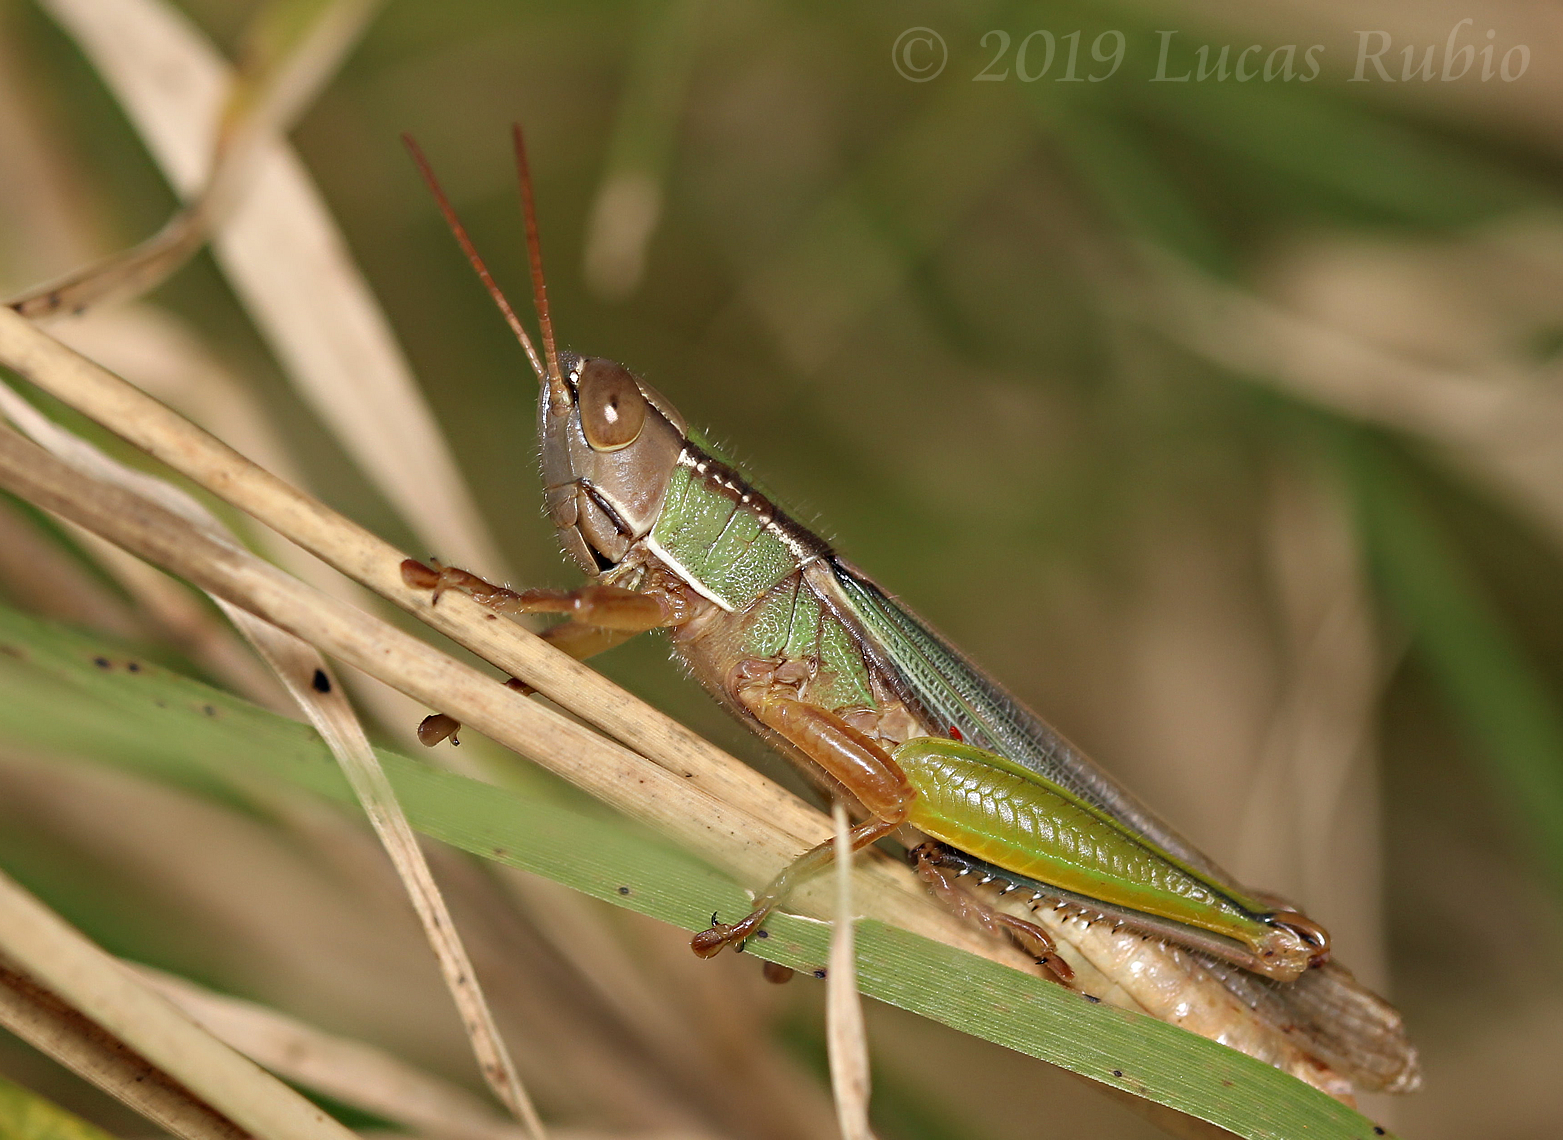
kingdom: Animalia
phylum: Arthropoda
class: Insecta
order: Orthoptera
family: Acrididae
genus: Aleuas
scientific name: Aleuas lineatus
